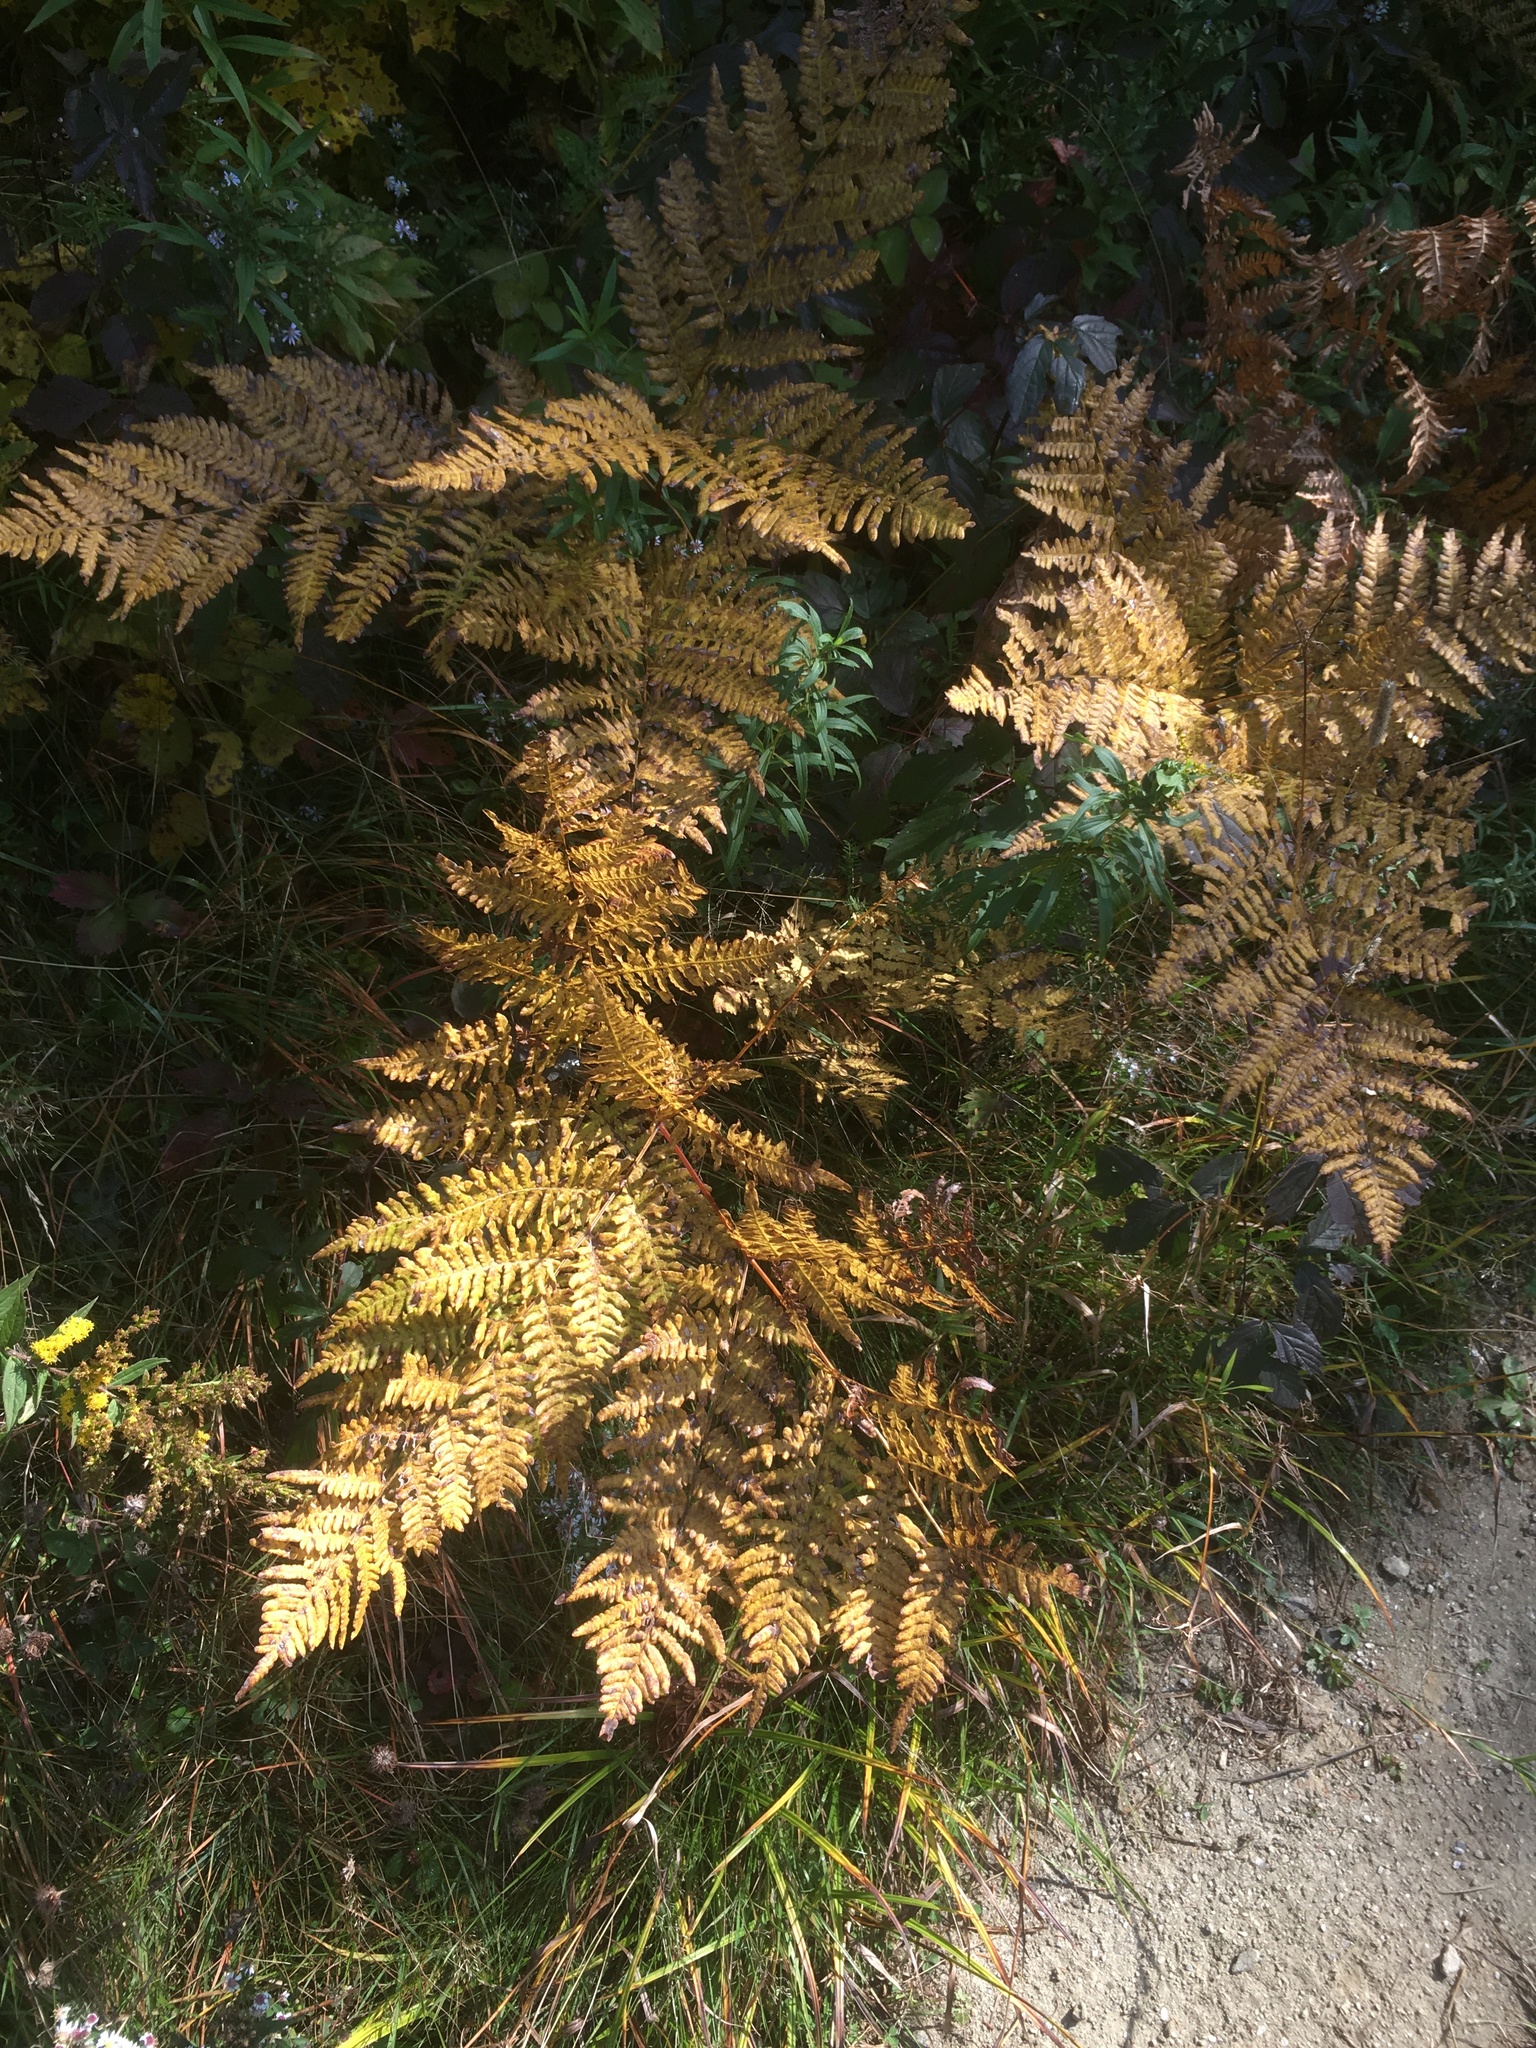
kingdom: Plantae
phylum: Tracheophyta
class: Polypodiopsida
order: Polypodiales
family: Dennstaedtiaceae
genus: Pteridium
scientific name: Pteridium aquilinum
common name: Bracken
